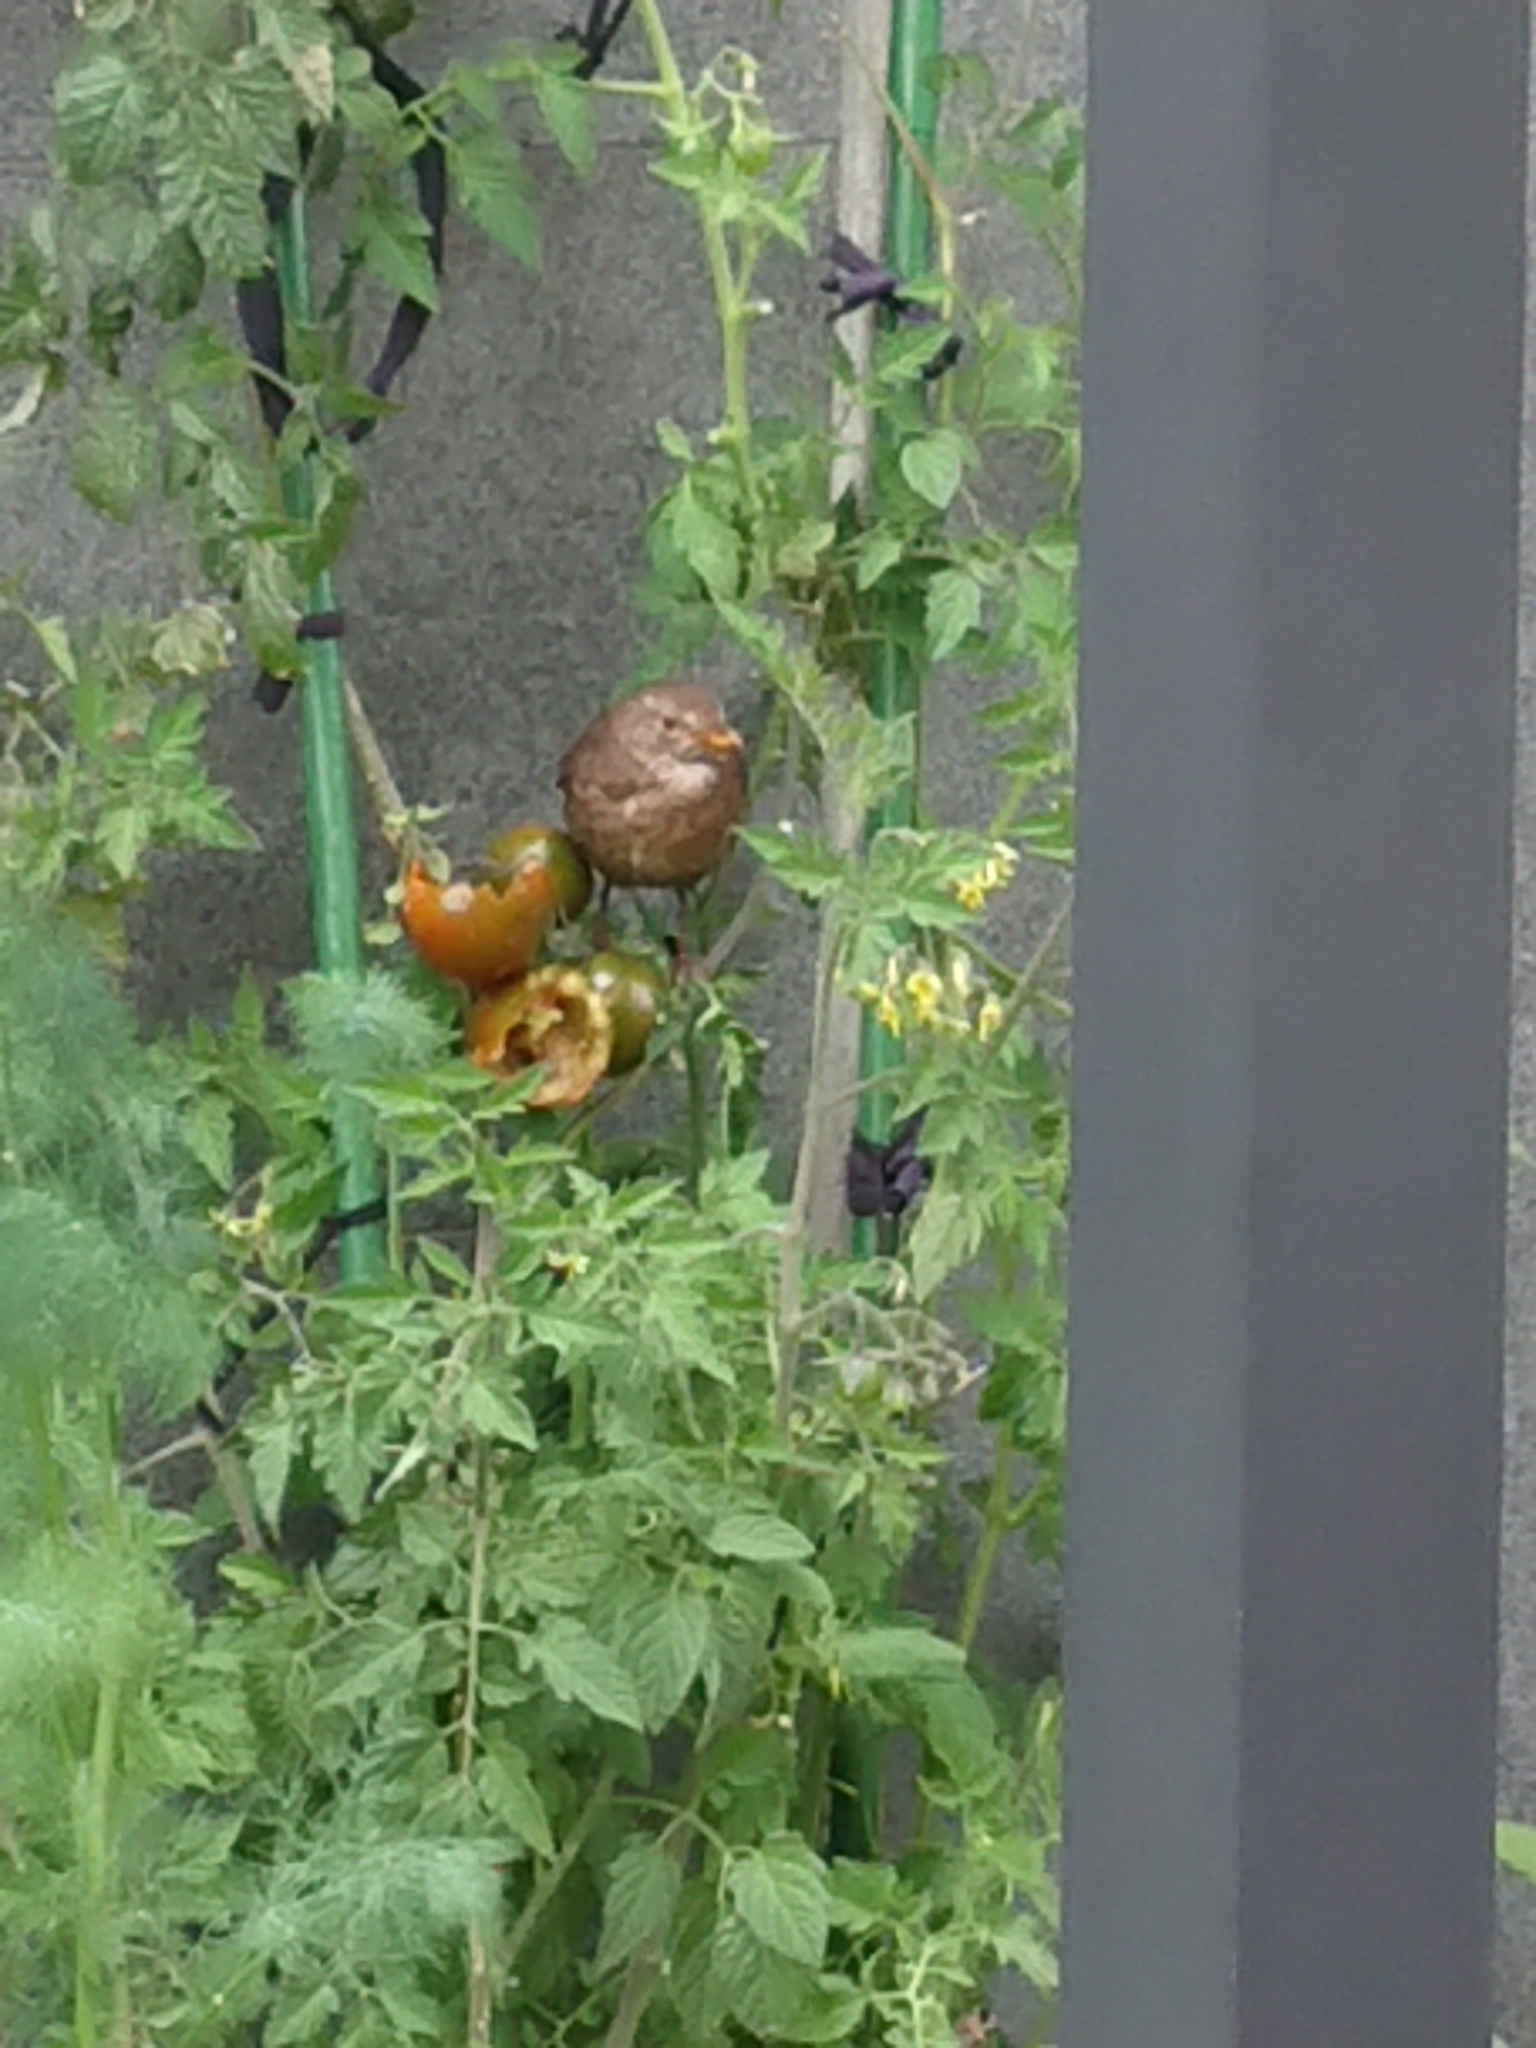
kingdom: Animalia
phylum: Chordata
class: Aves
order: Passeriformes
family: Turdidae
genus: Turdus
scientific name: Turdus merula
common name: Common blackbird
